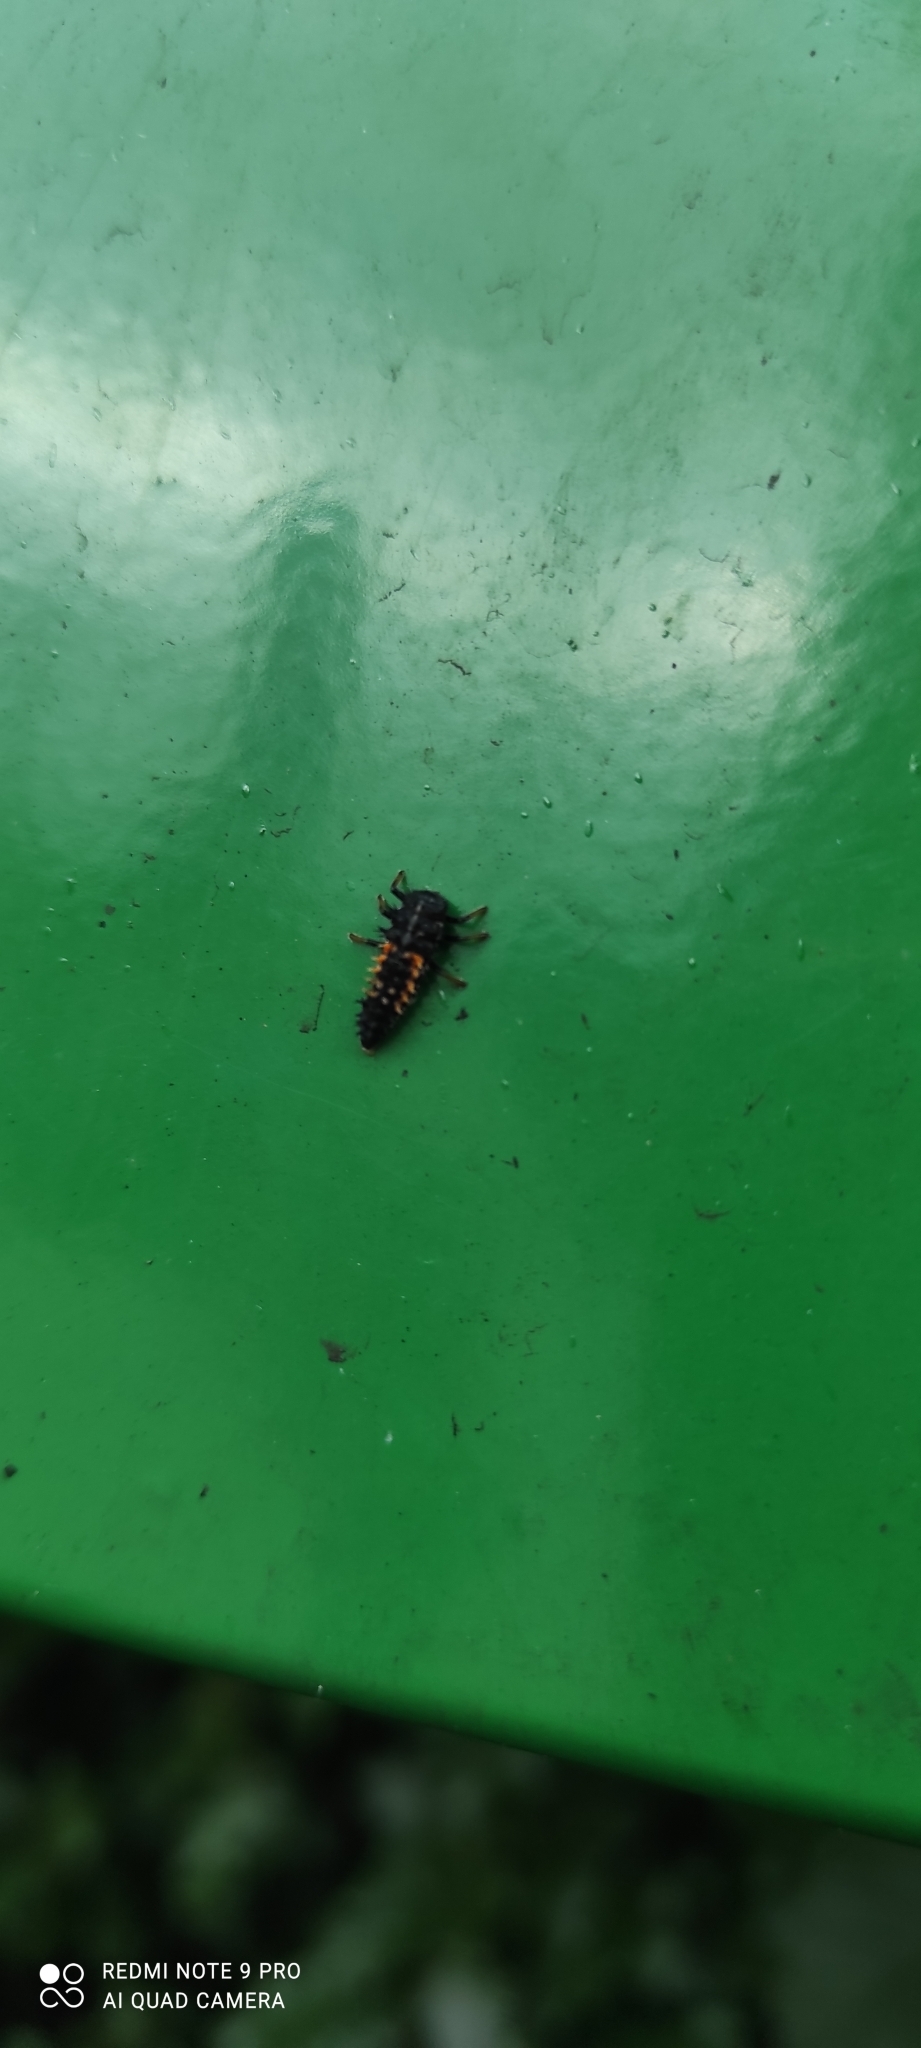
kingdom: Animalia
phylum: Arthropoda
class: Insecta
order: Coleoptera
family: Coccinellidae
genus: Harmonia
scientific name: Harmonia axyridis
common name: Harlequin ladybird
